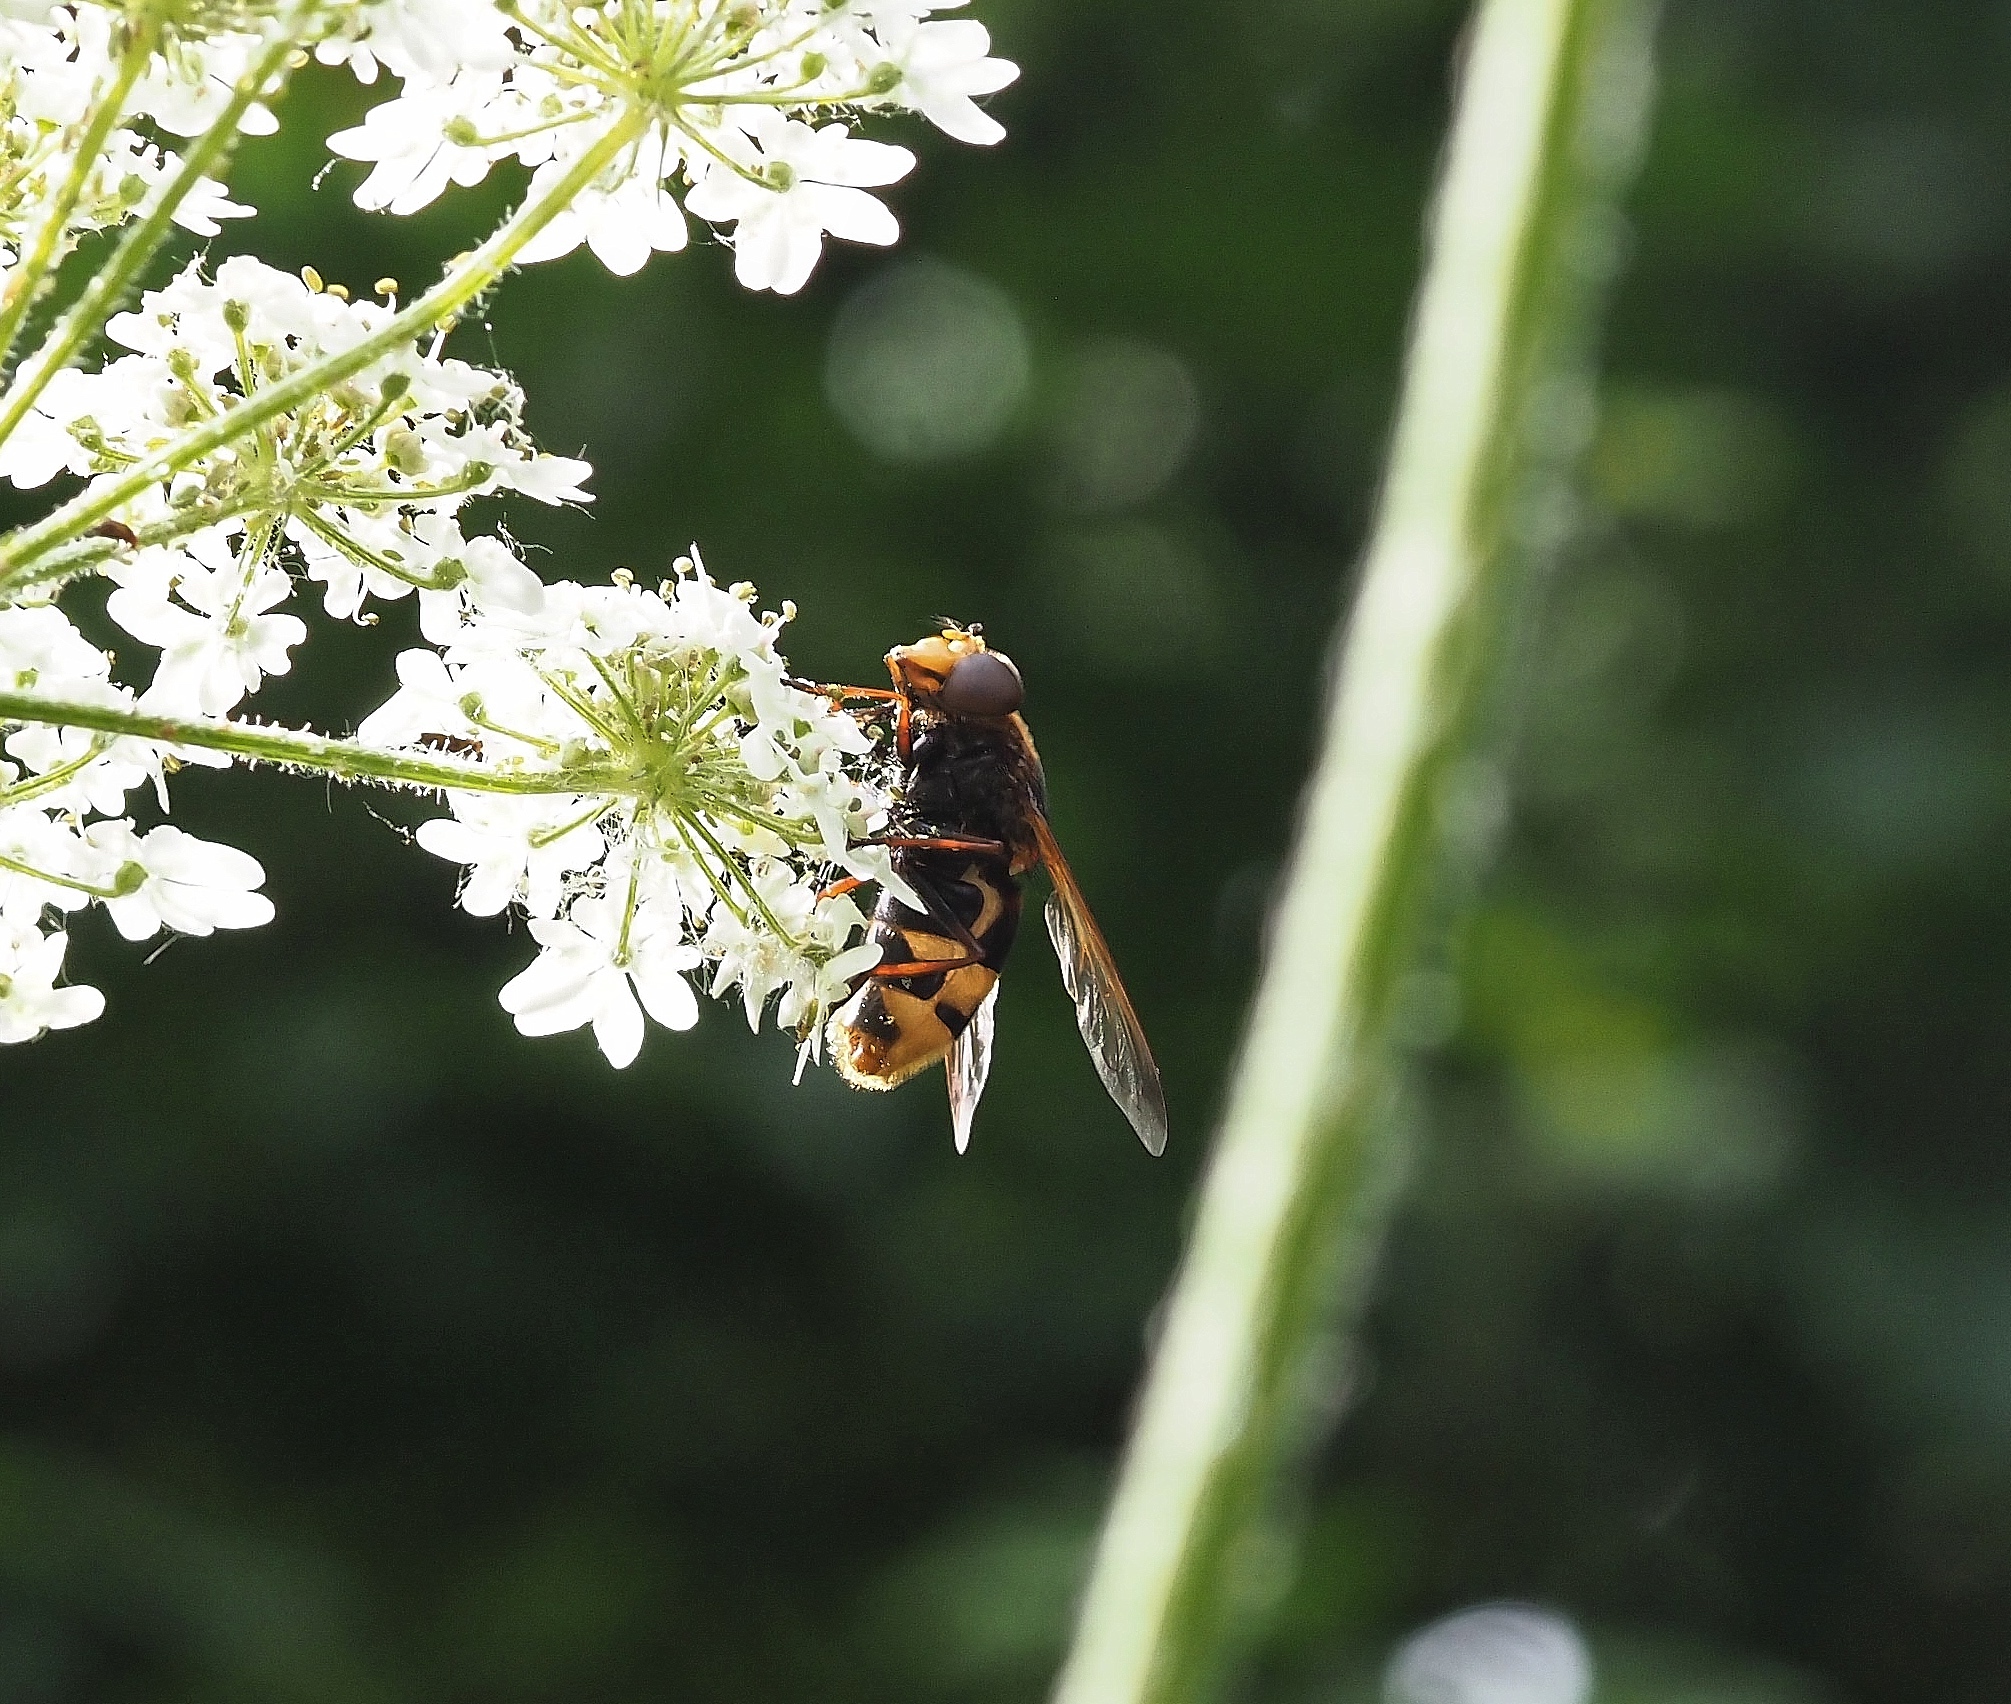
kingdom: Animalia
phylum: Arthropoda
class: Insecta
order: Diptera
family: Syrphidae
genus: Volucella
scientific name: Volucella zonaria
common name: Hornet hoverfly
